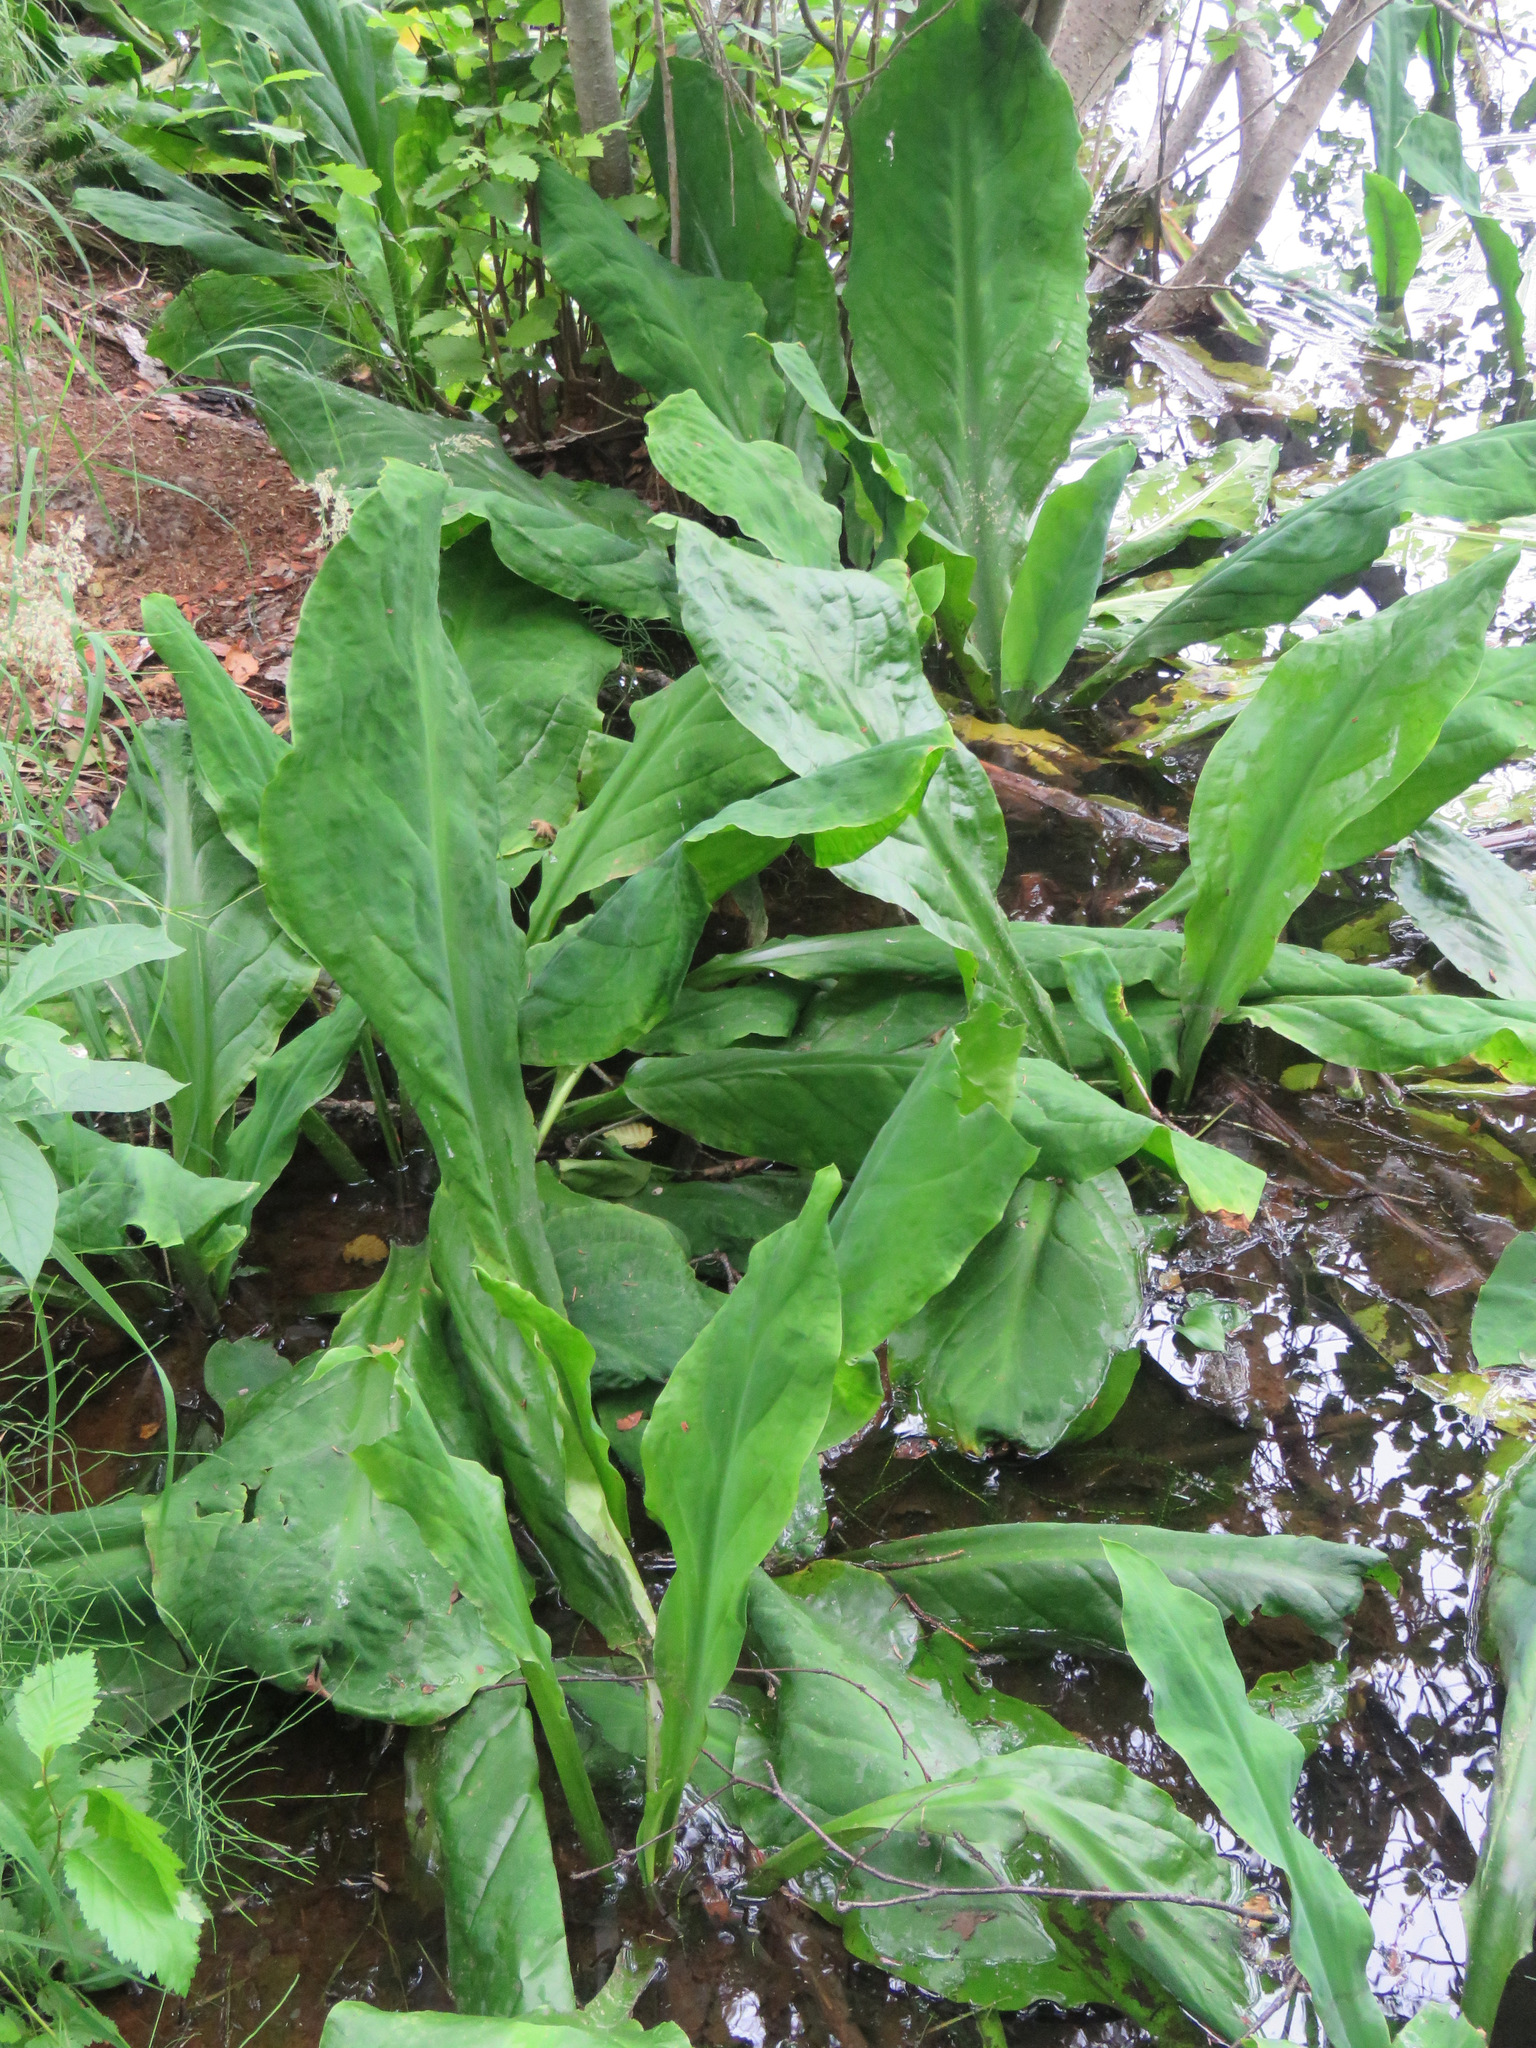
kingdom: Plantae
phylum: Tracheophyta
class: Liliopsida
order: Alismatales
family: Araceae
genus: Lysichiton
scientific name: Lysichiton americanus
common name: American skunk cabbage
